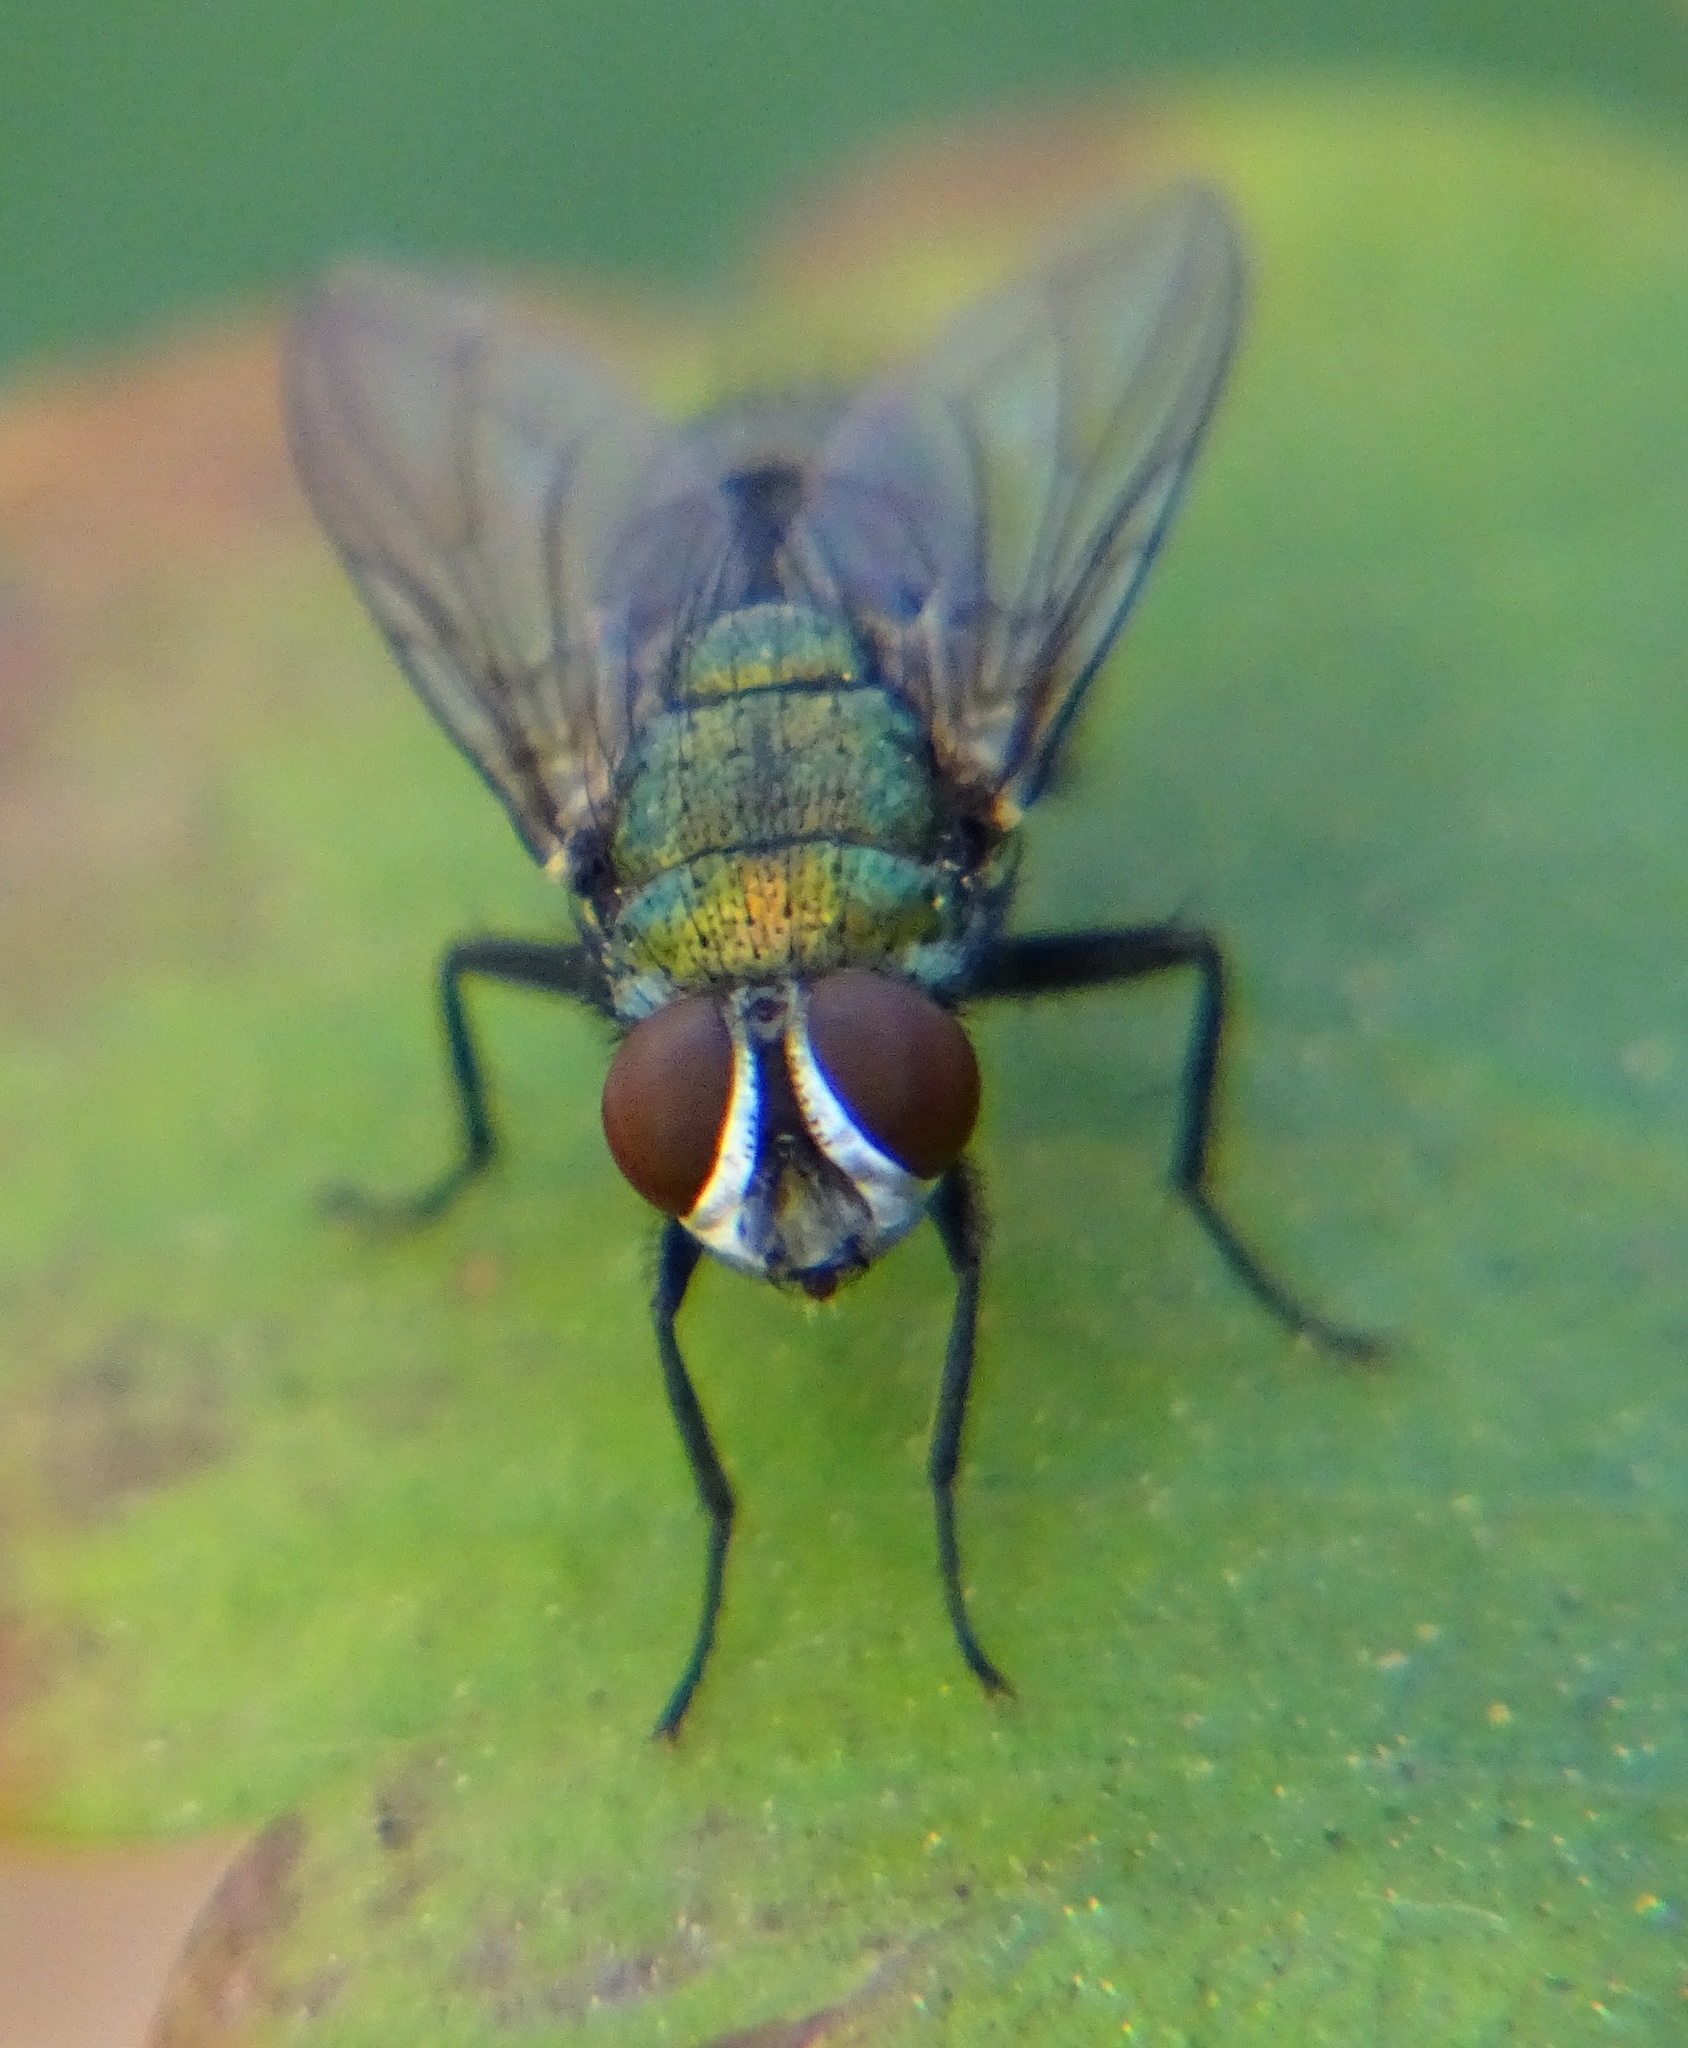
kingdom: Animalia
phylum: Arthropoda
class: Insecta
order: Diptera
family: Calliphoridae
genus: Lucilia
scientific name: Lucilia cuprina
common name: Sheep blow fly
